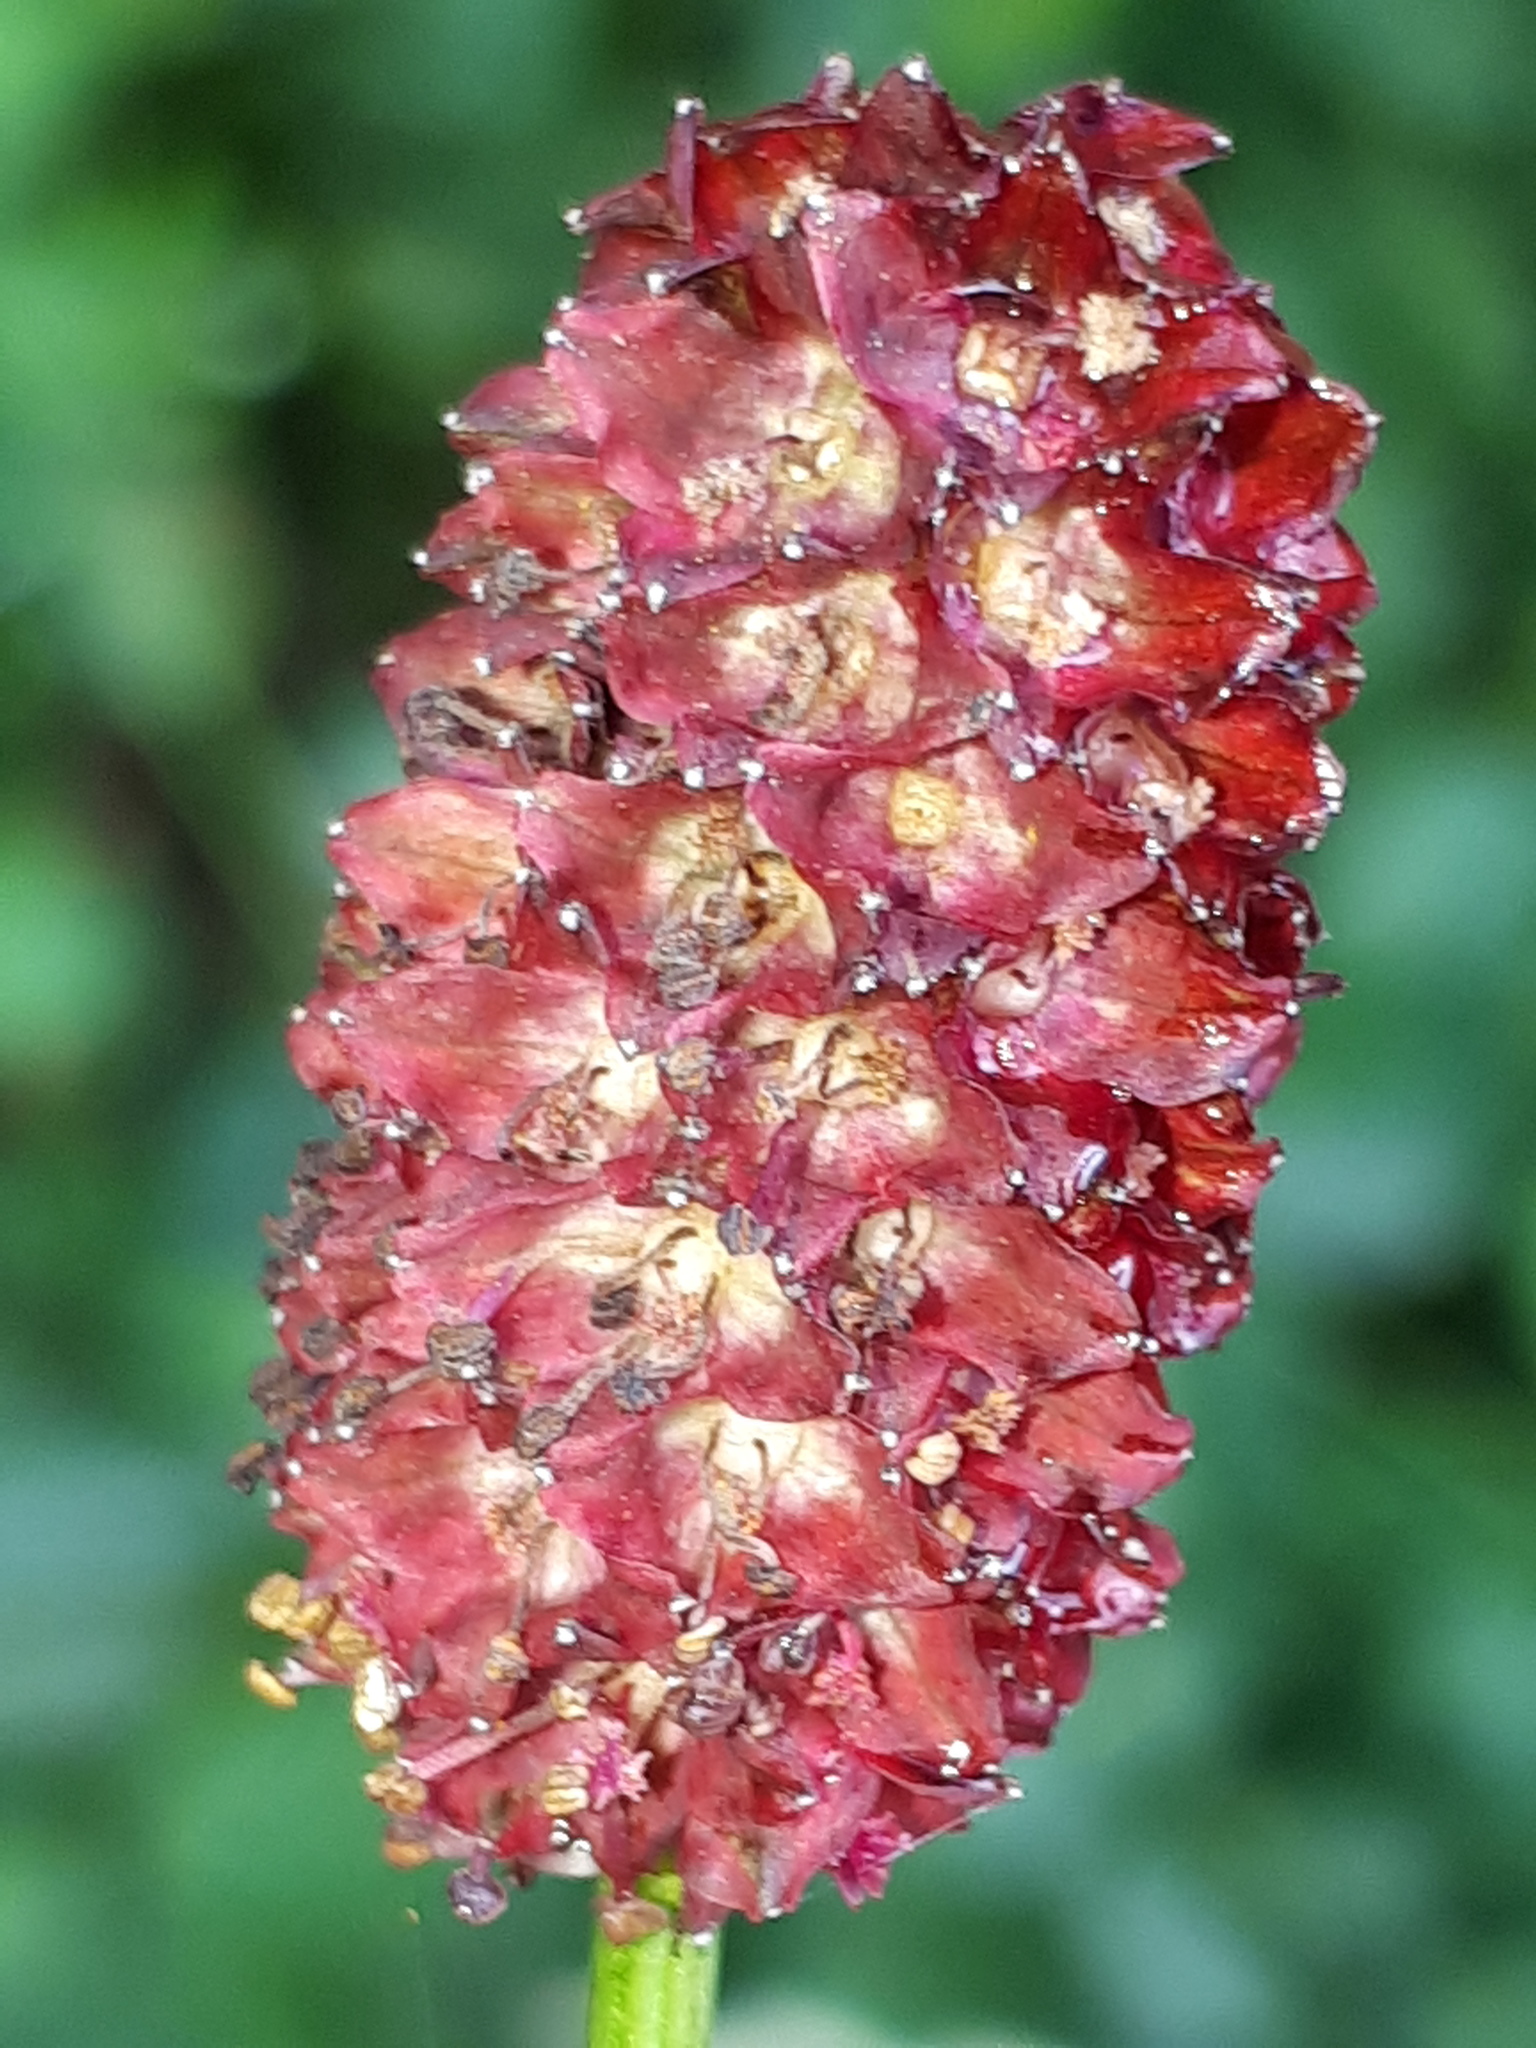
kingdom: Plantae
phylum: Tracheophyta
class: Magnoliopsida
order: Rosales
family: Rosaceae
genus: Sanguisorba
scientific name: Sanguisorba officinalis
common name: Great burnet
